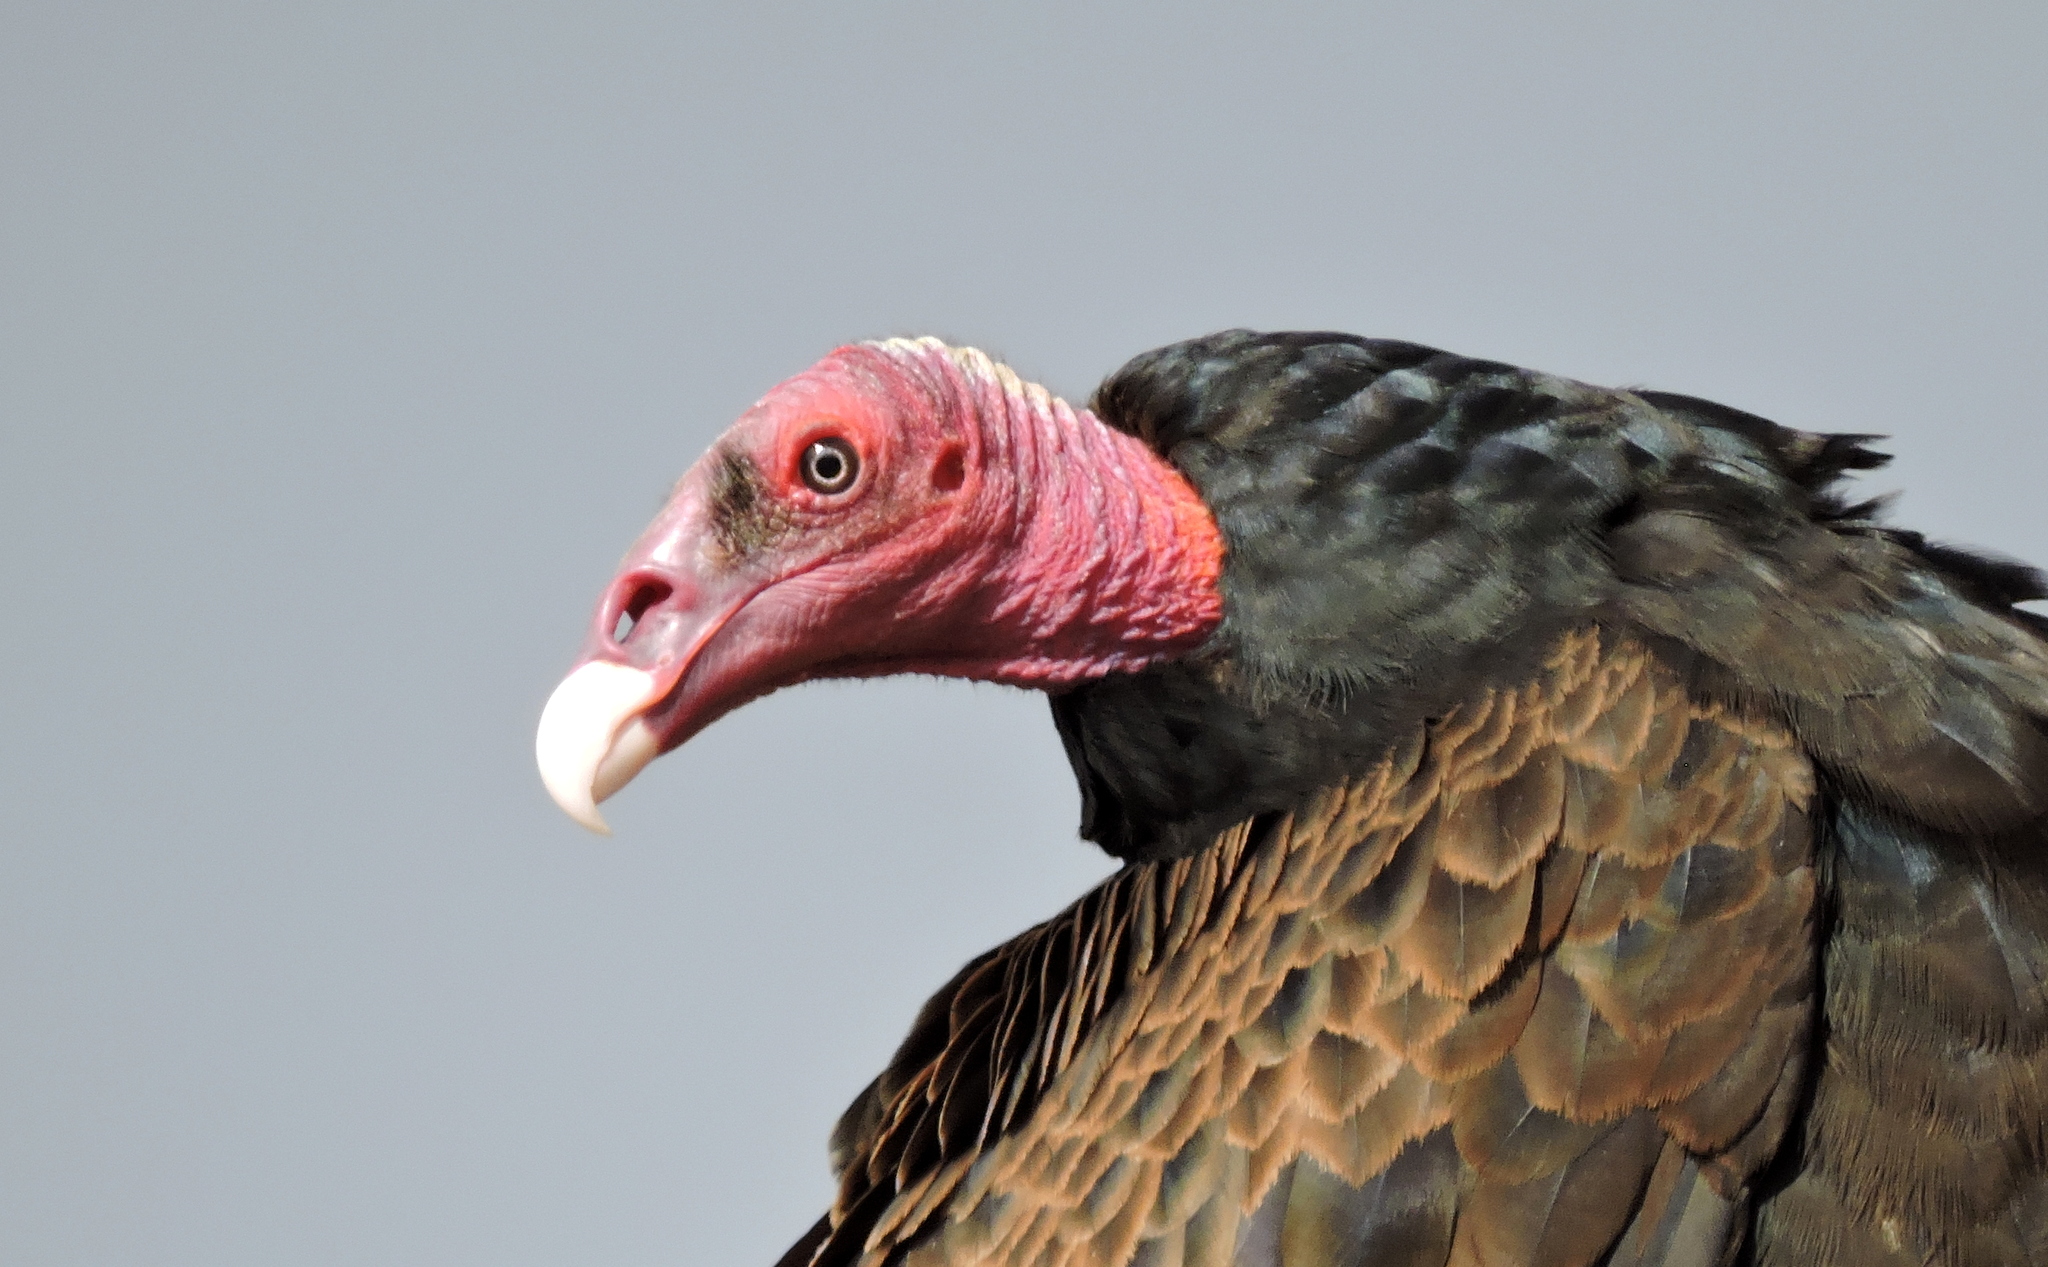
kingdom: Animalia
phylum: Chordata
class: Aves
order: Accipitriformes
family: Cathartidae
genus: Cathartes
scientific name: Cathartes aura
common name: Turkey vulture
